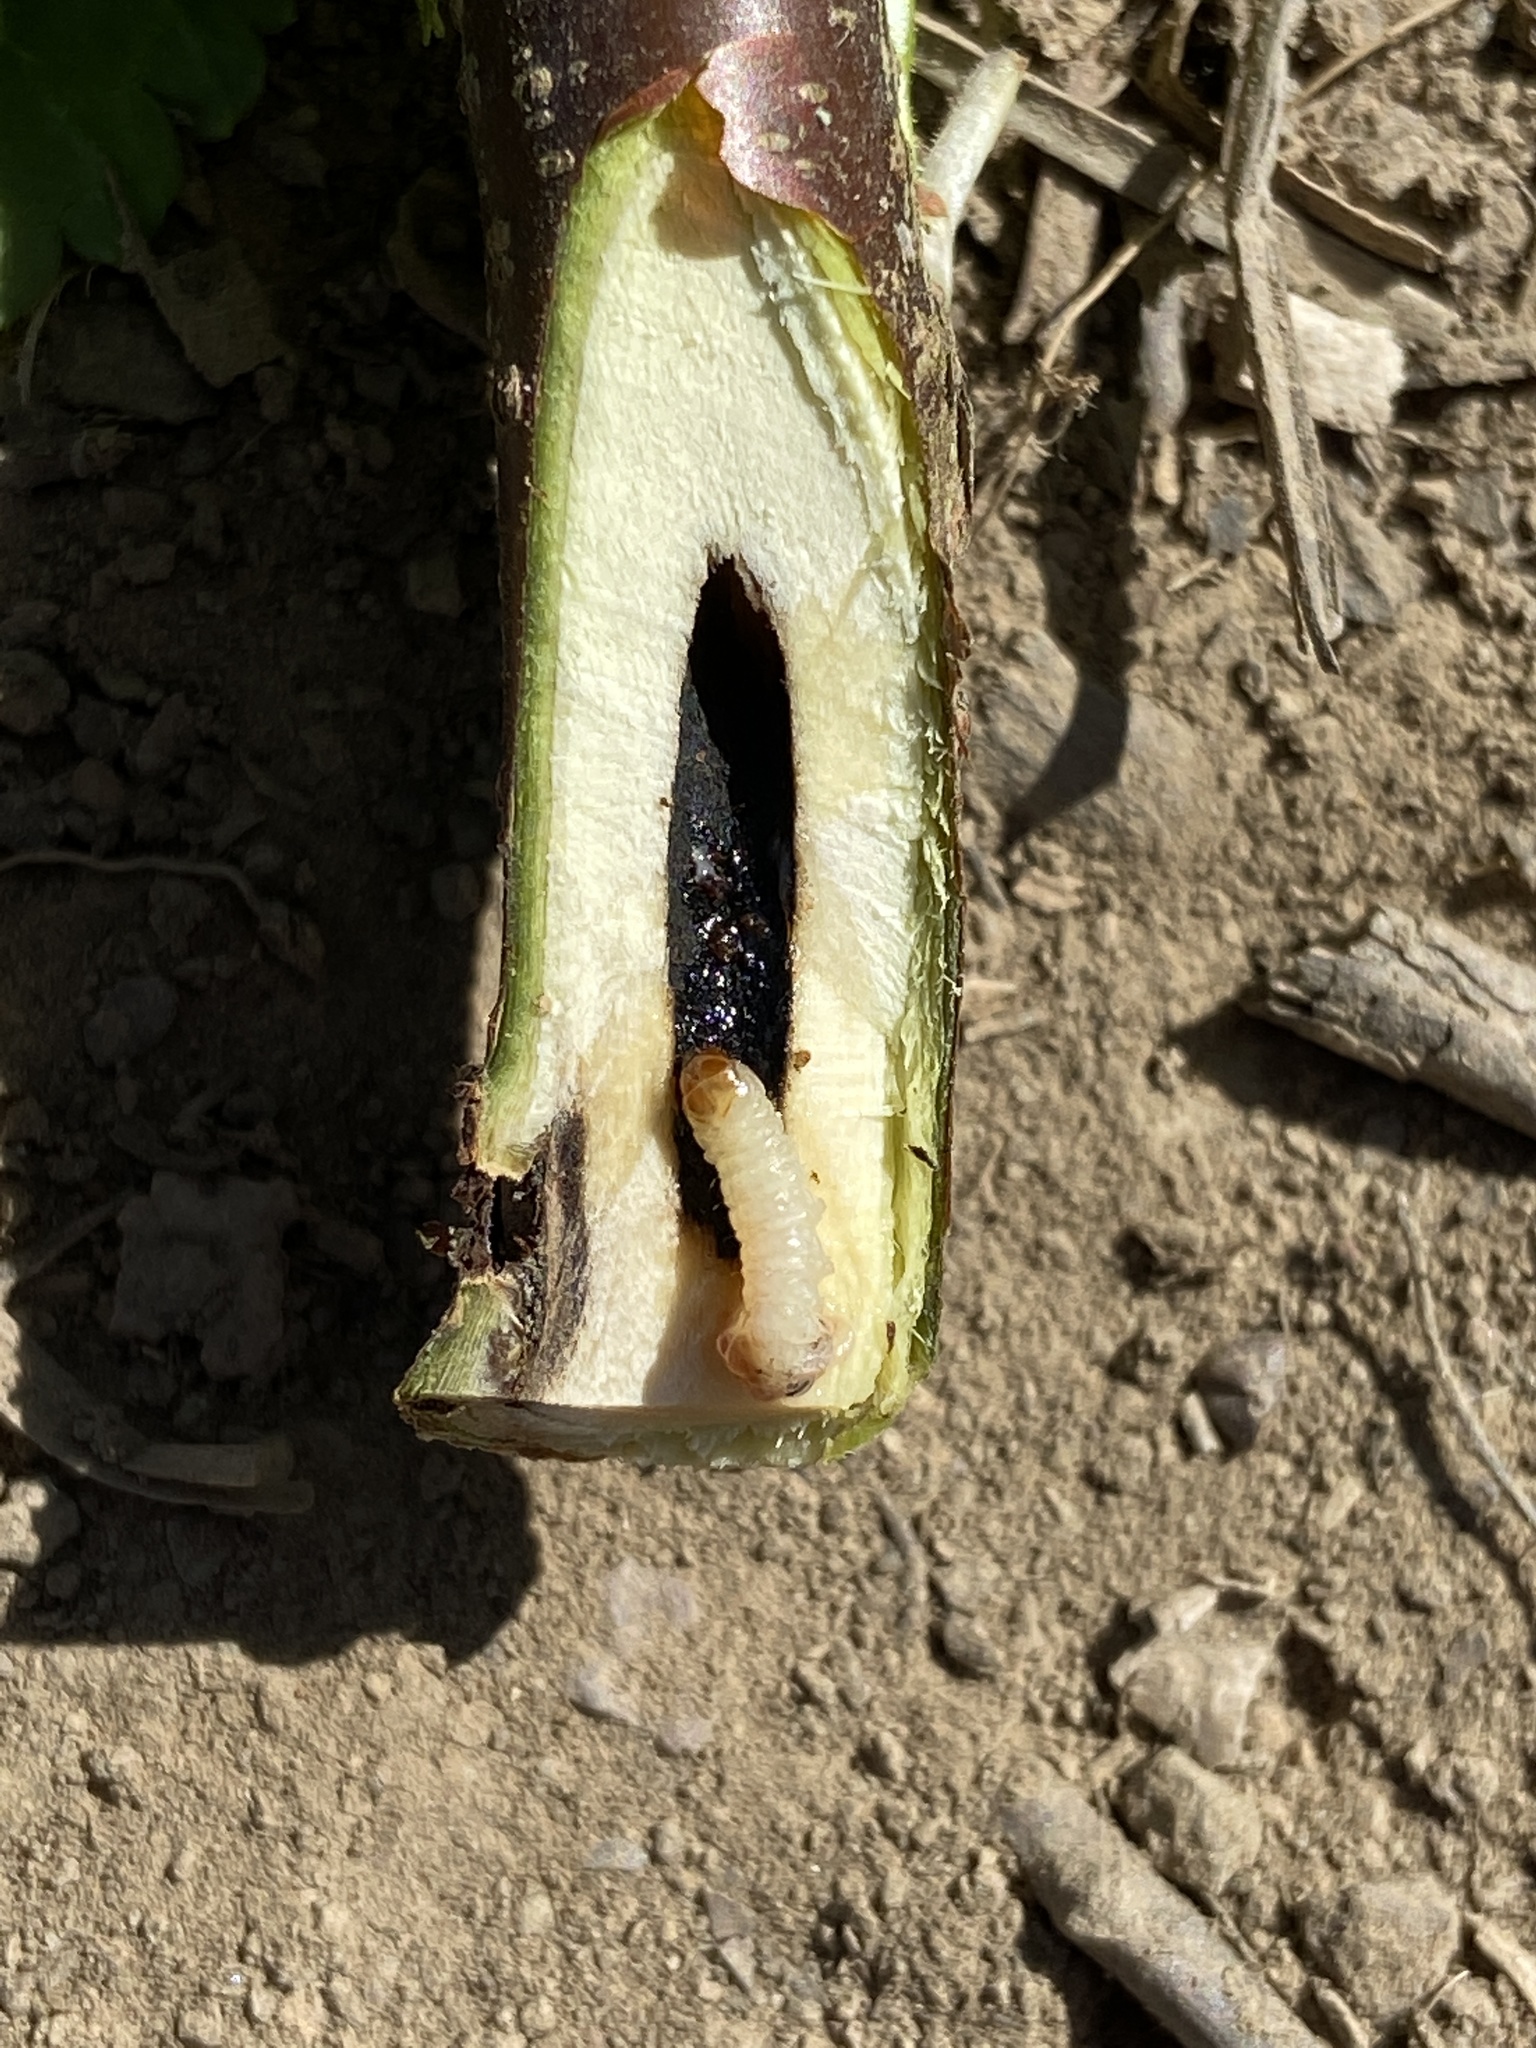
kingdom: Animalia
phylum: Arthropoda
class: Insecta
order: Lepidoptera
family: Sesiidae
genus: Synanthedon
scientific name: Synanthedon tipuliformis
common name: Currant clearwing
